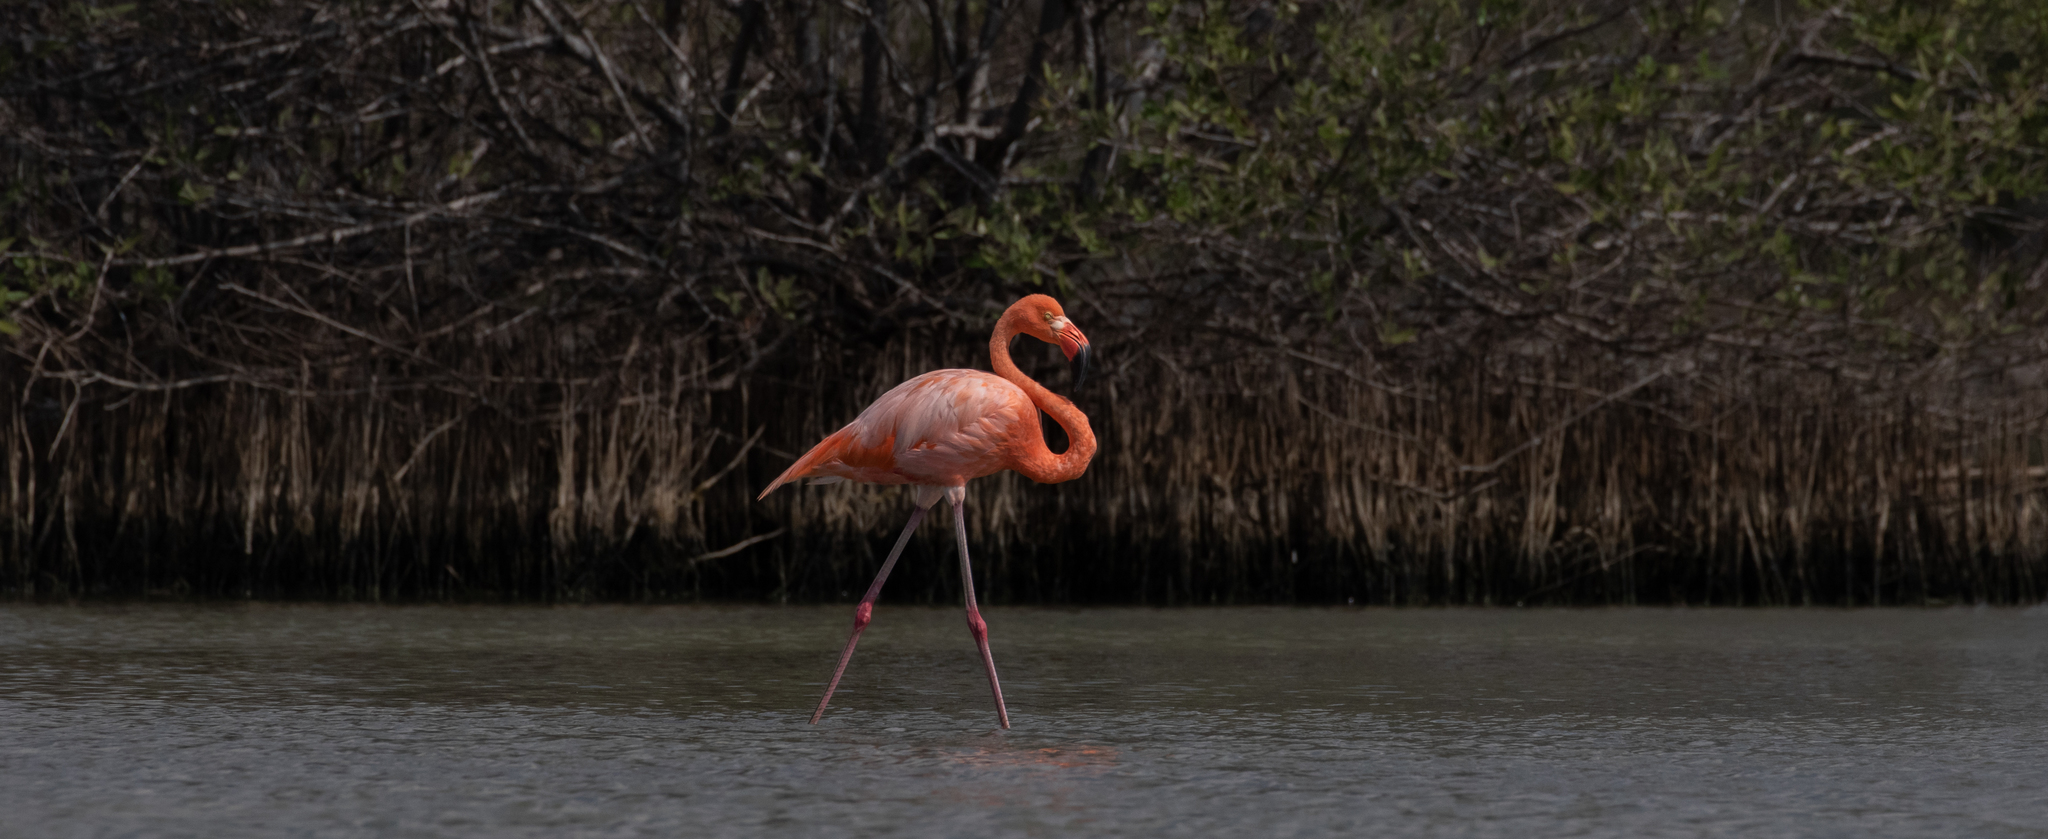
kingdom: Animalia
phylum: Chordata
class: Aves
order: Phoenicopteriformes
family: Phoenicopteridae
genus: Phoenicopterus
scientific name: Phoenicopterus ruber
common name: American flamingo
